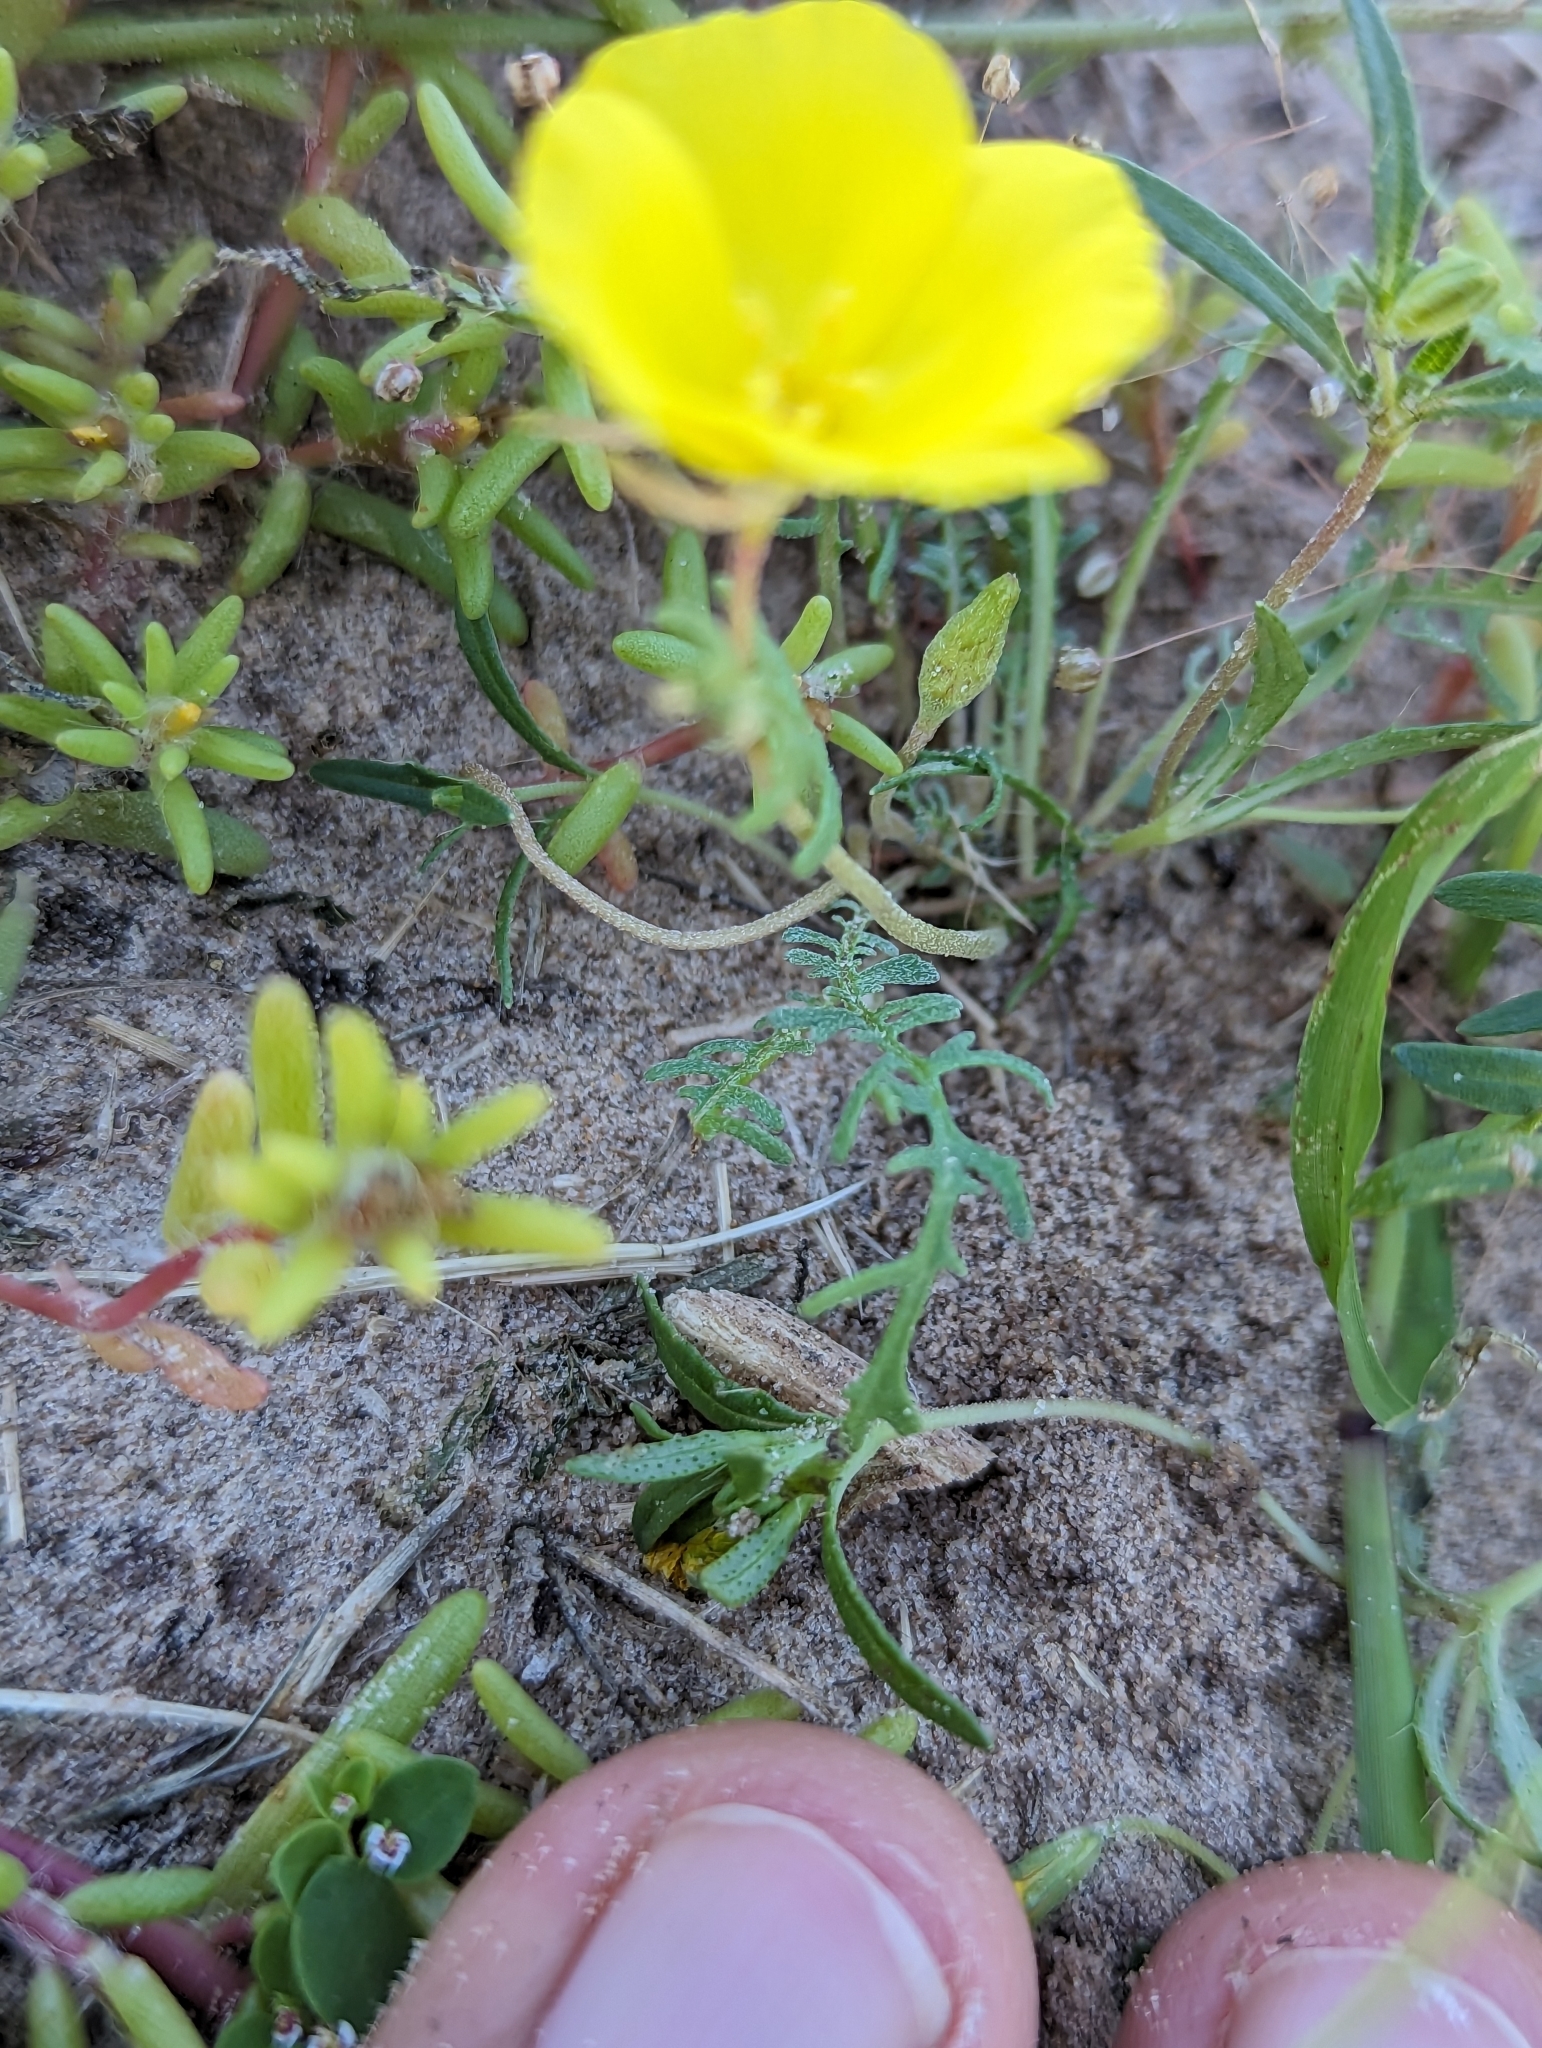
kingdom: Plantae
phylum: Tracheophyta
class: Magnoliopsida
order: Myrtales
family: Onagraceae
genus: Eulobus
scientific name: Eulobus crassifolius
